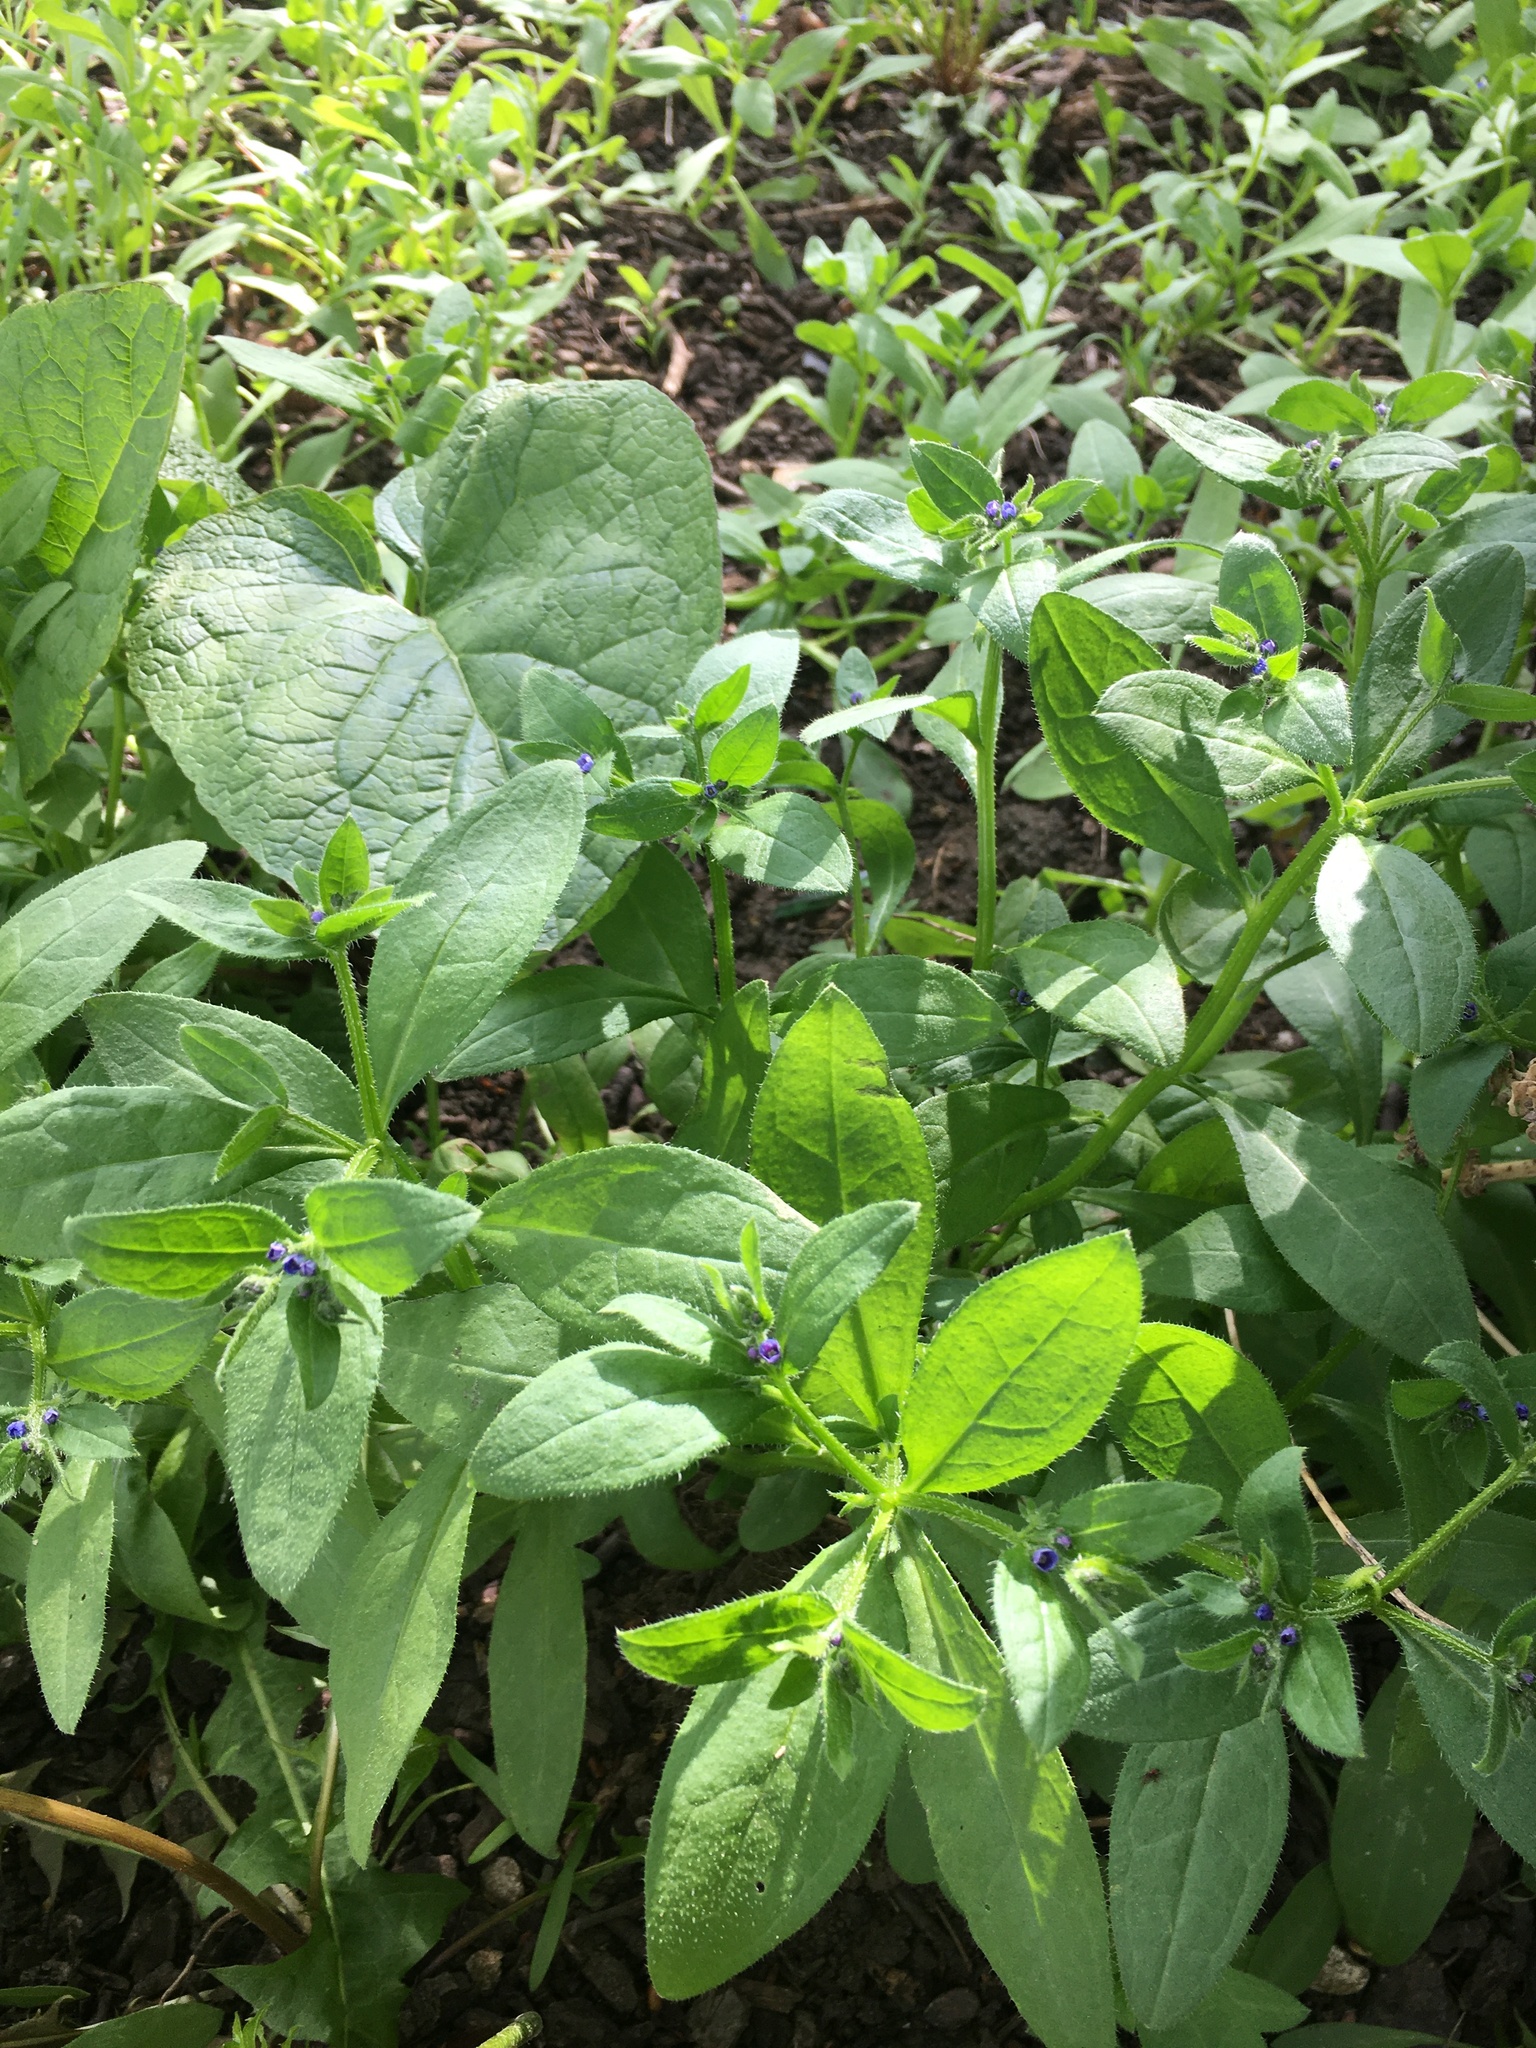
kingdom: Plantae
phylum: Tracheophyta
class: Magnoliopsida
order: Boraginales
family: Boraginaceae
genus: Asperugo
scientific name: Asperugo procumbens
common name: Madwort
